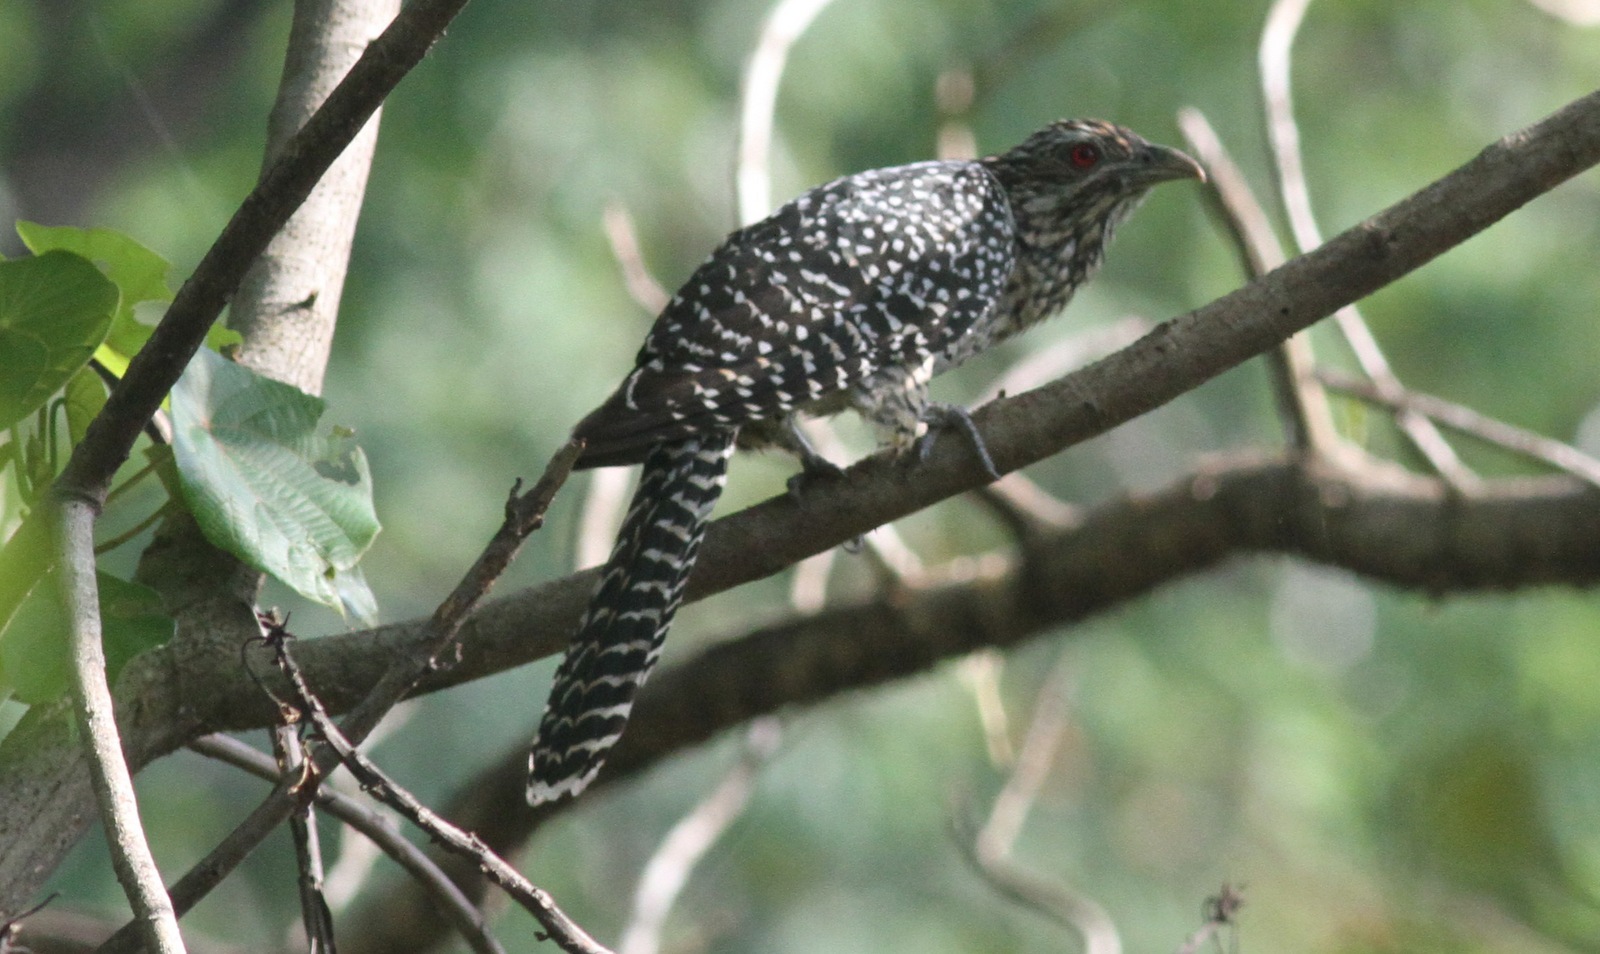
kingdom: Animalia
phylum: Chordata
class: Aves
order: Cuculiformes
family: Cuculidae
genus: Eudynamys
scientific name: Eudynamys scolopaceus
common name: Asian koel
